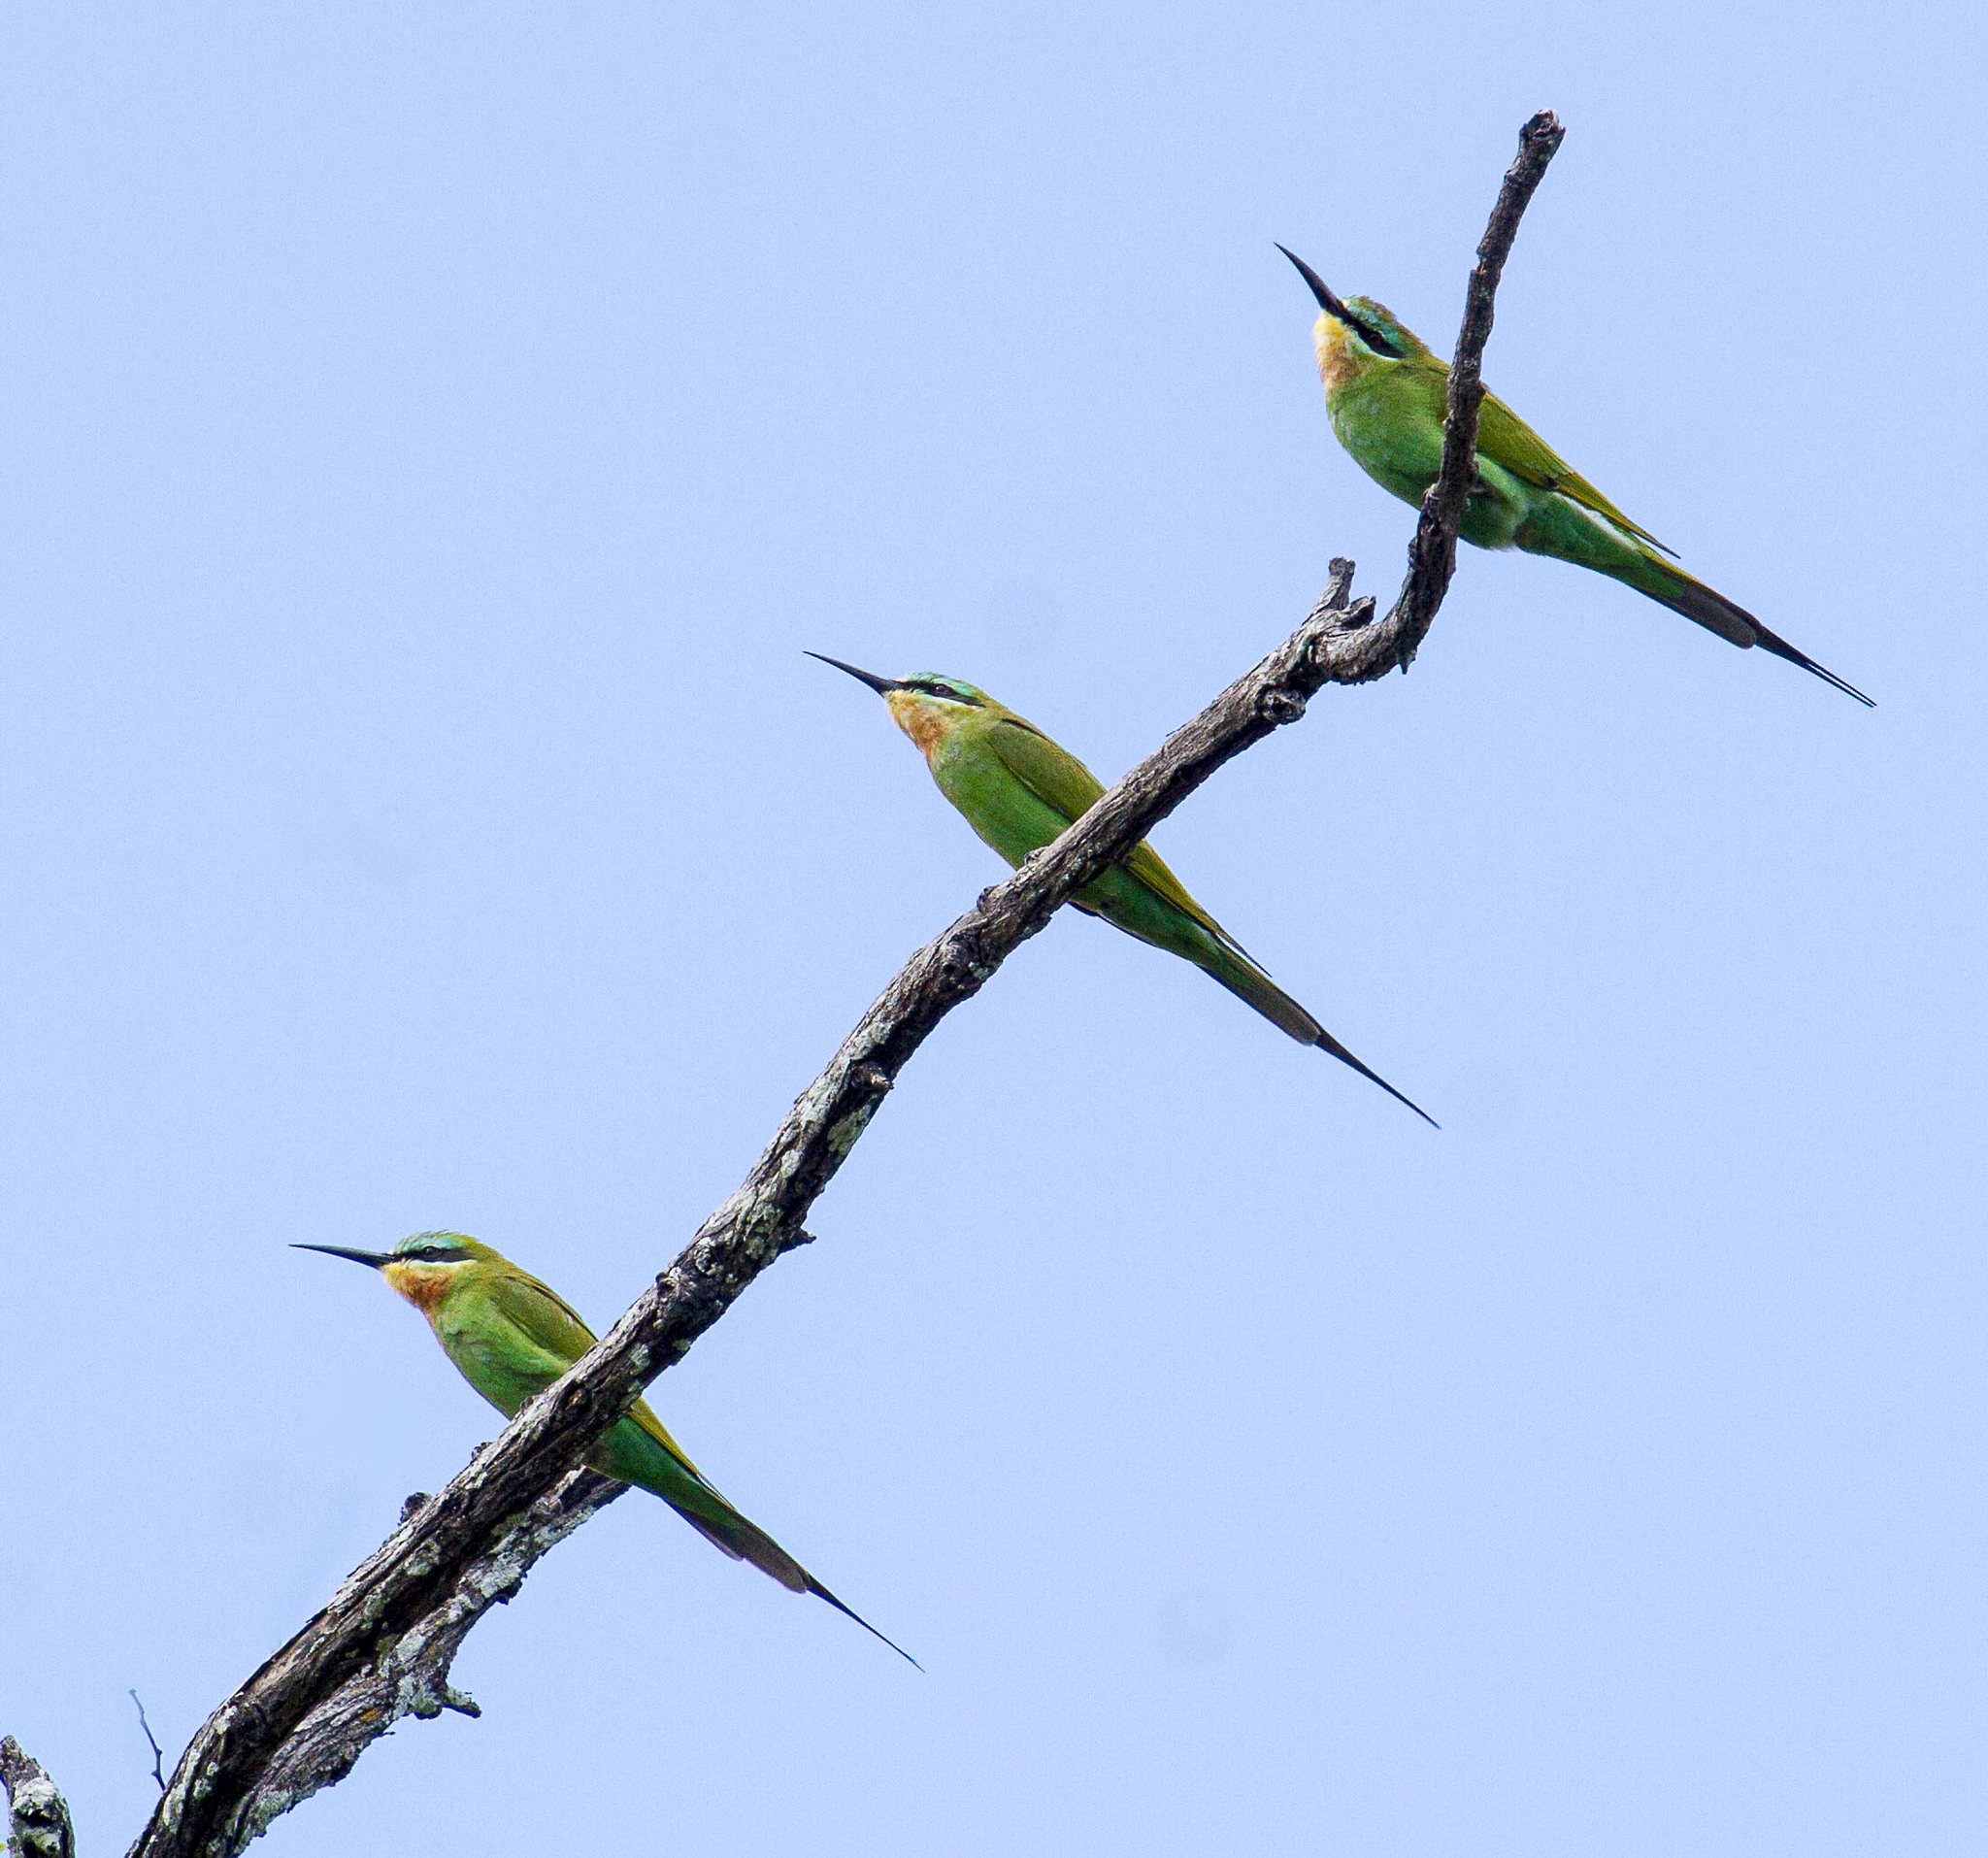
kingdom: Animalia
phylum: Chordata
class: Aves
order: Coraciiformes
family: Meropidae
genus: Merops
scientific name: Merops persicus
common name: Blue-cheeked bee-eater
